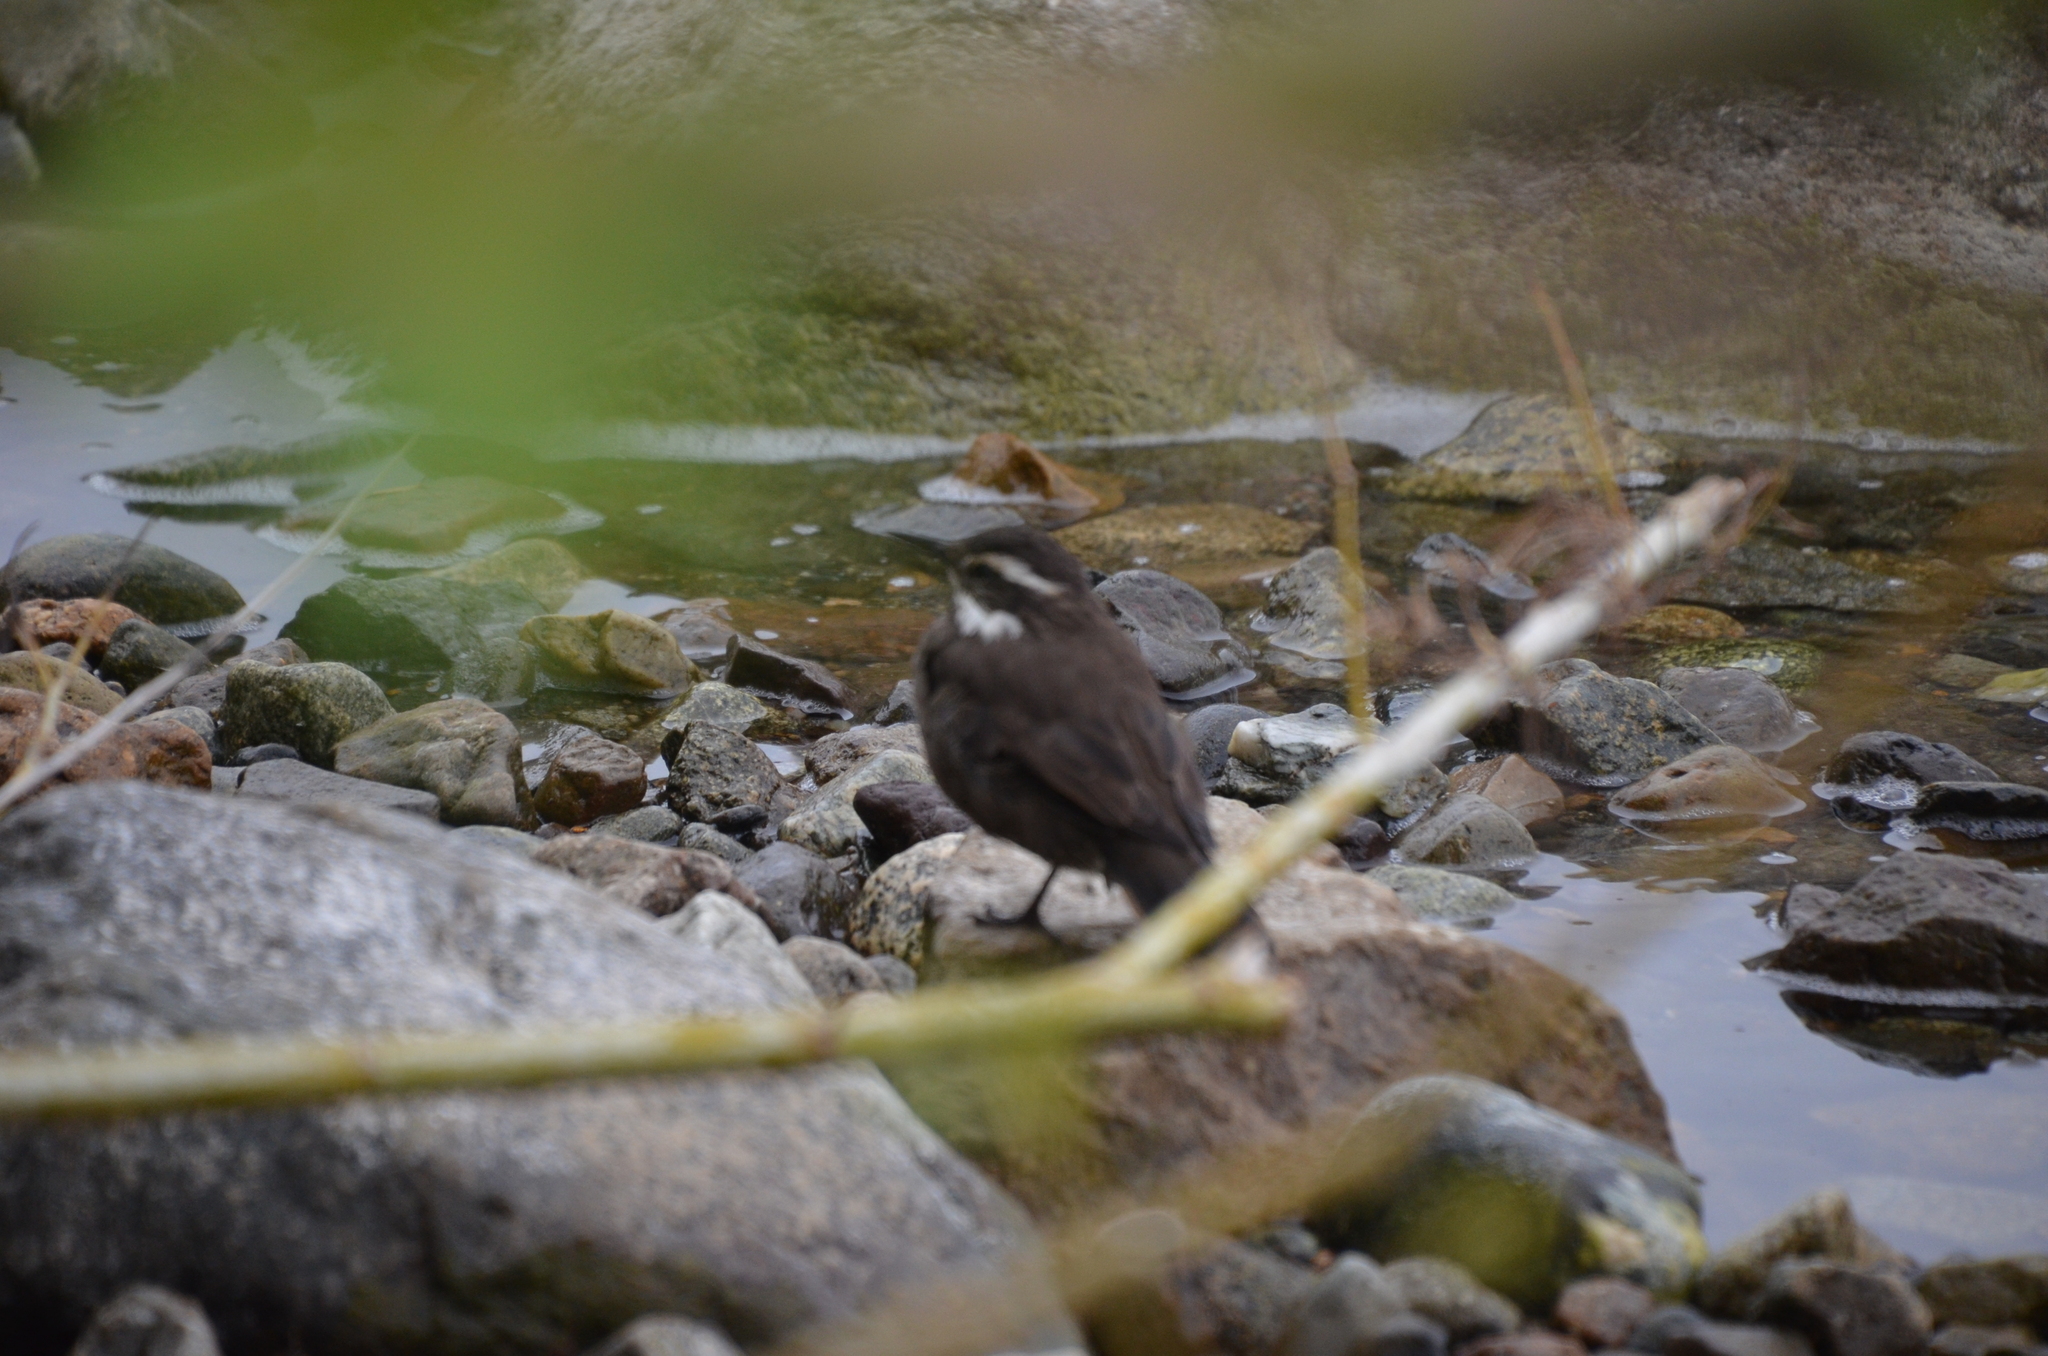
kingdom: Animalia
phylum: Chordata
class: Aves
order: Passeriformes
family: Furnariidae
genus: Cinclodes
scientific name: Cinclodes patagonicus
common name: Dark-bellied cinclodes
